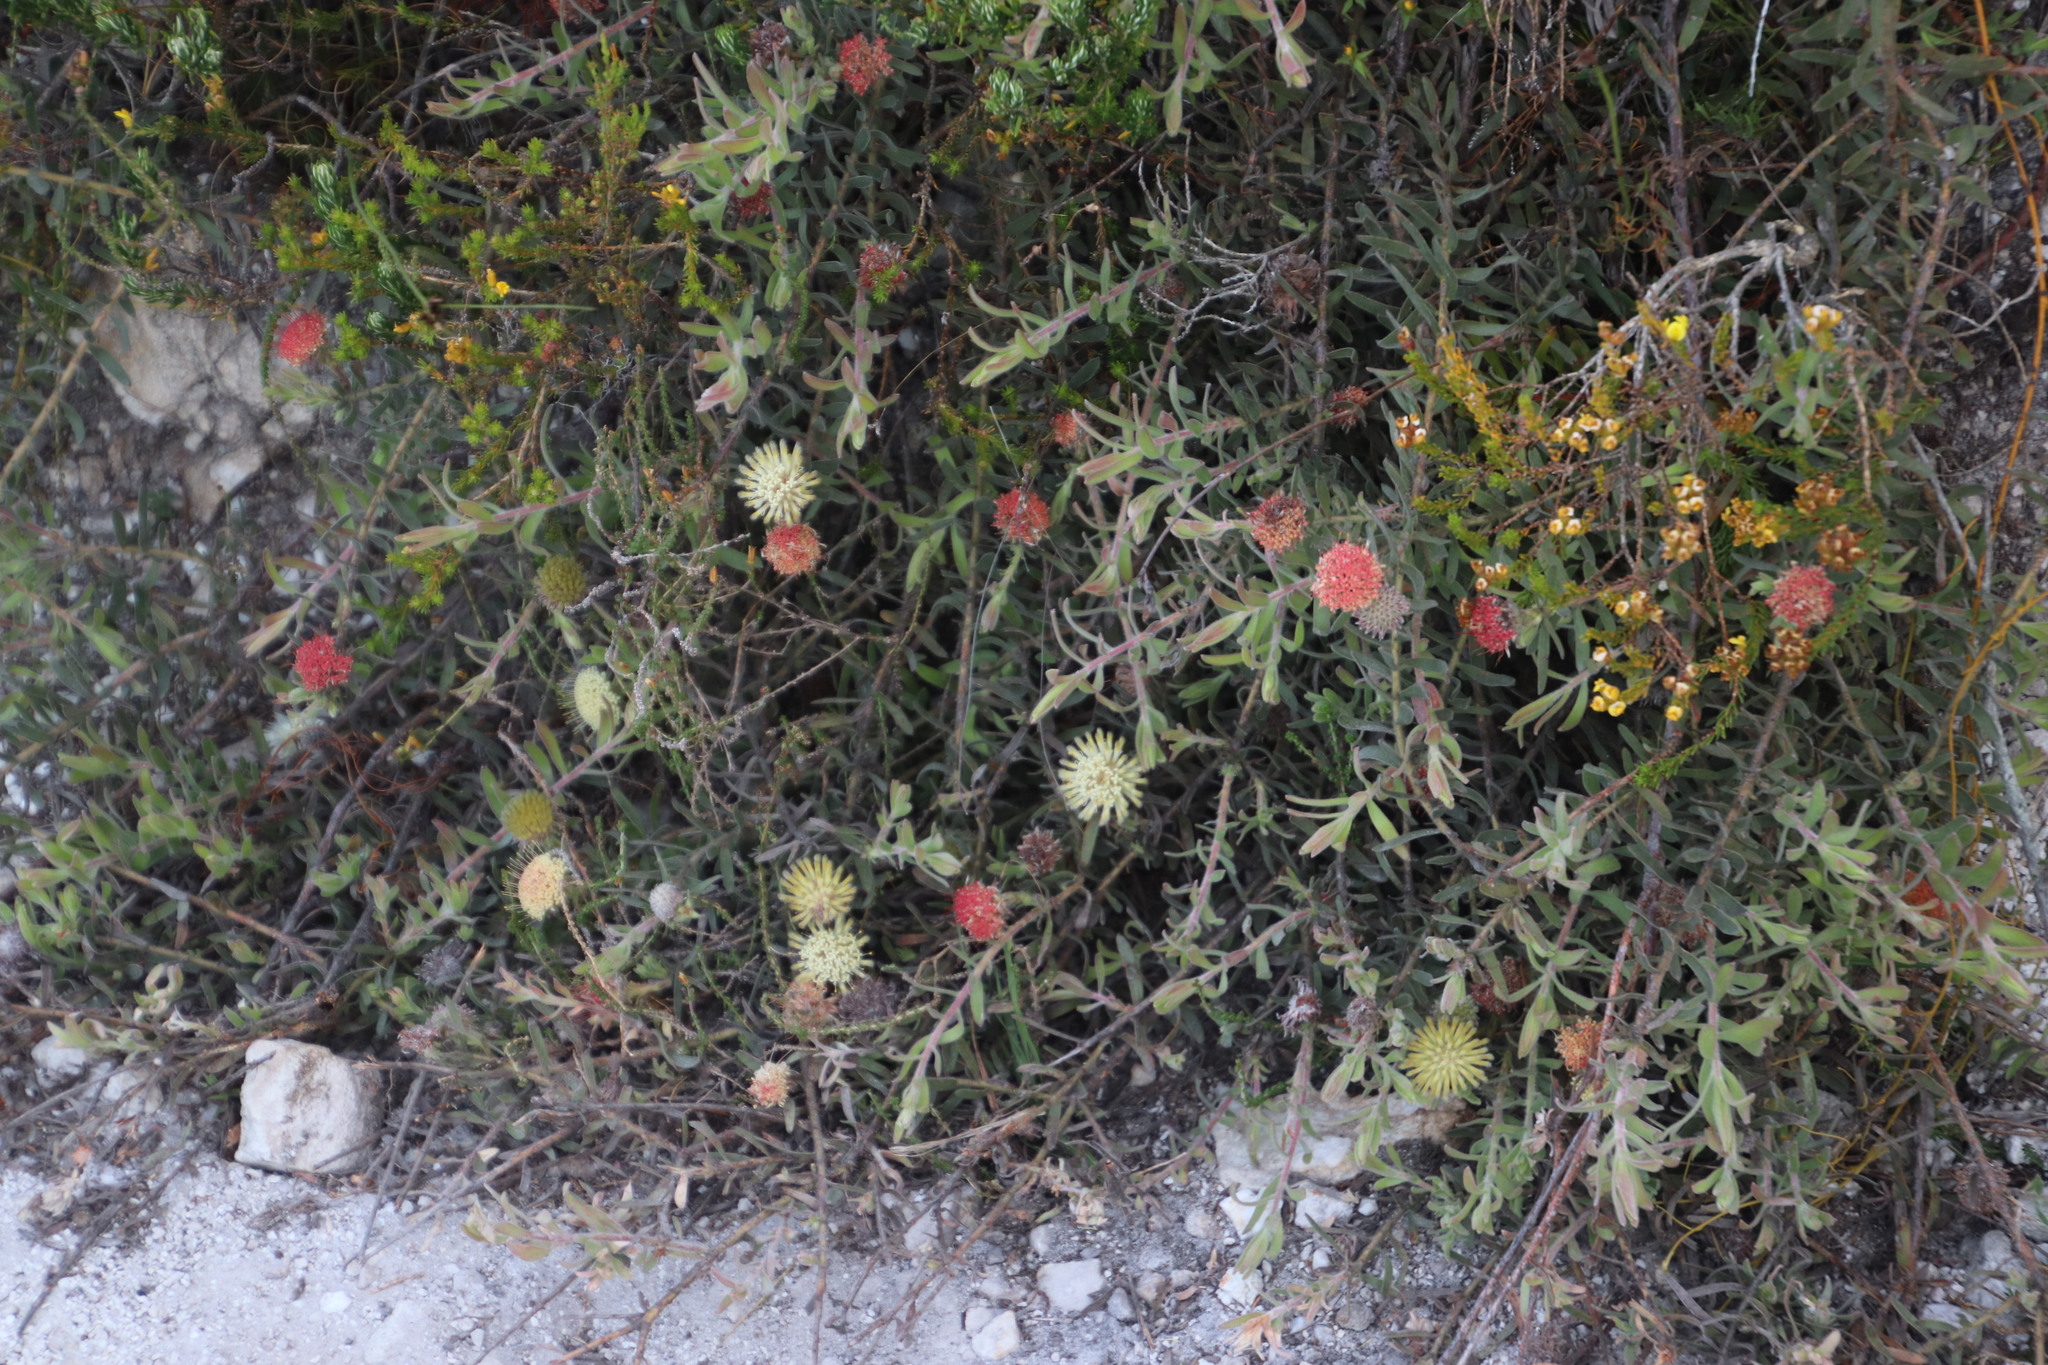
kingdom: Plantae
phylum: Tracheophyta
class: Magnoliopsida
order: Proteales
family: Proteaceae
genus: Leucospermum
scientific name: Leucospermum pedunculatum
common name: White-trailing pincushion
